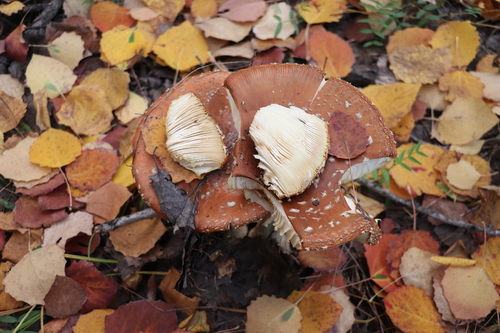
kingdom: Fungi
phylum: Basidiomycota
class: Agaricomycetes
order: Agaricales
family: Amanitaceae
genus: Amanita
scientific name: Amanita muscaria
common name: Fly agaric
